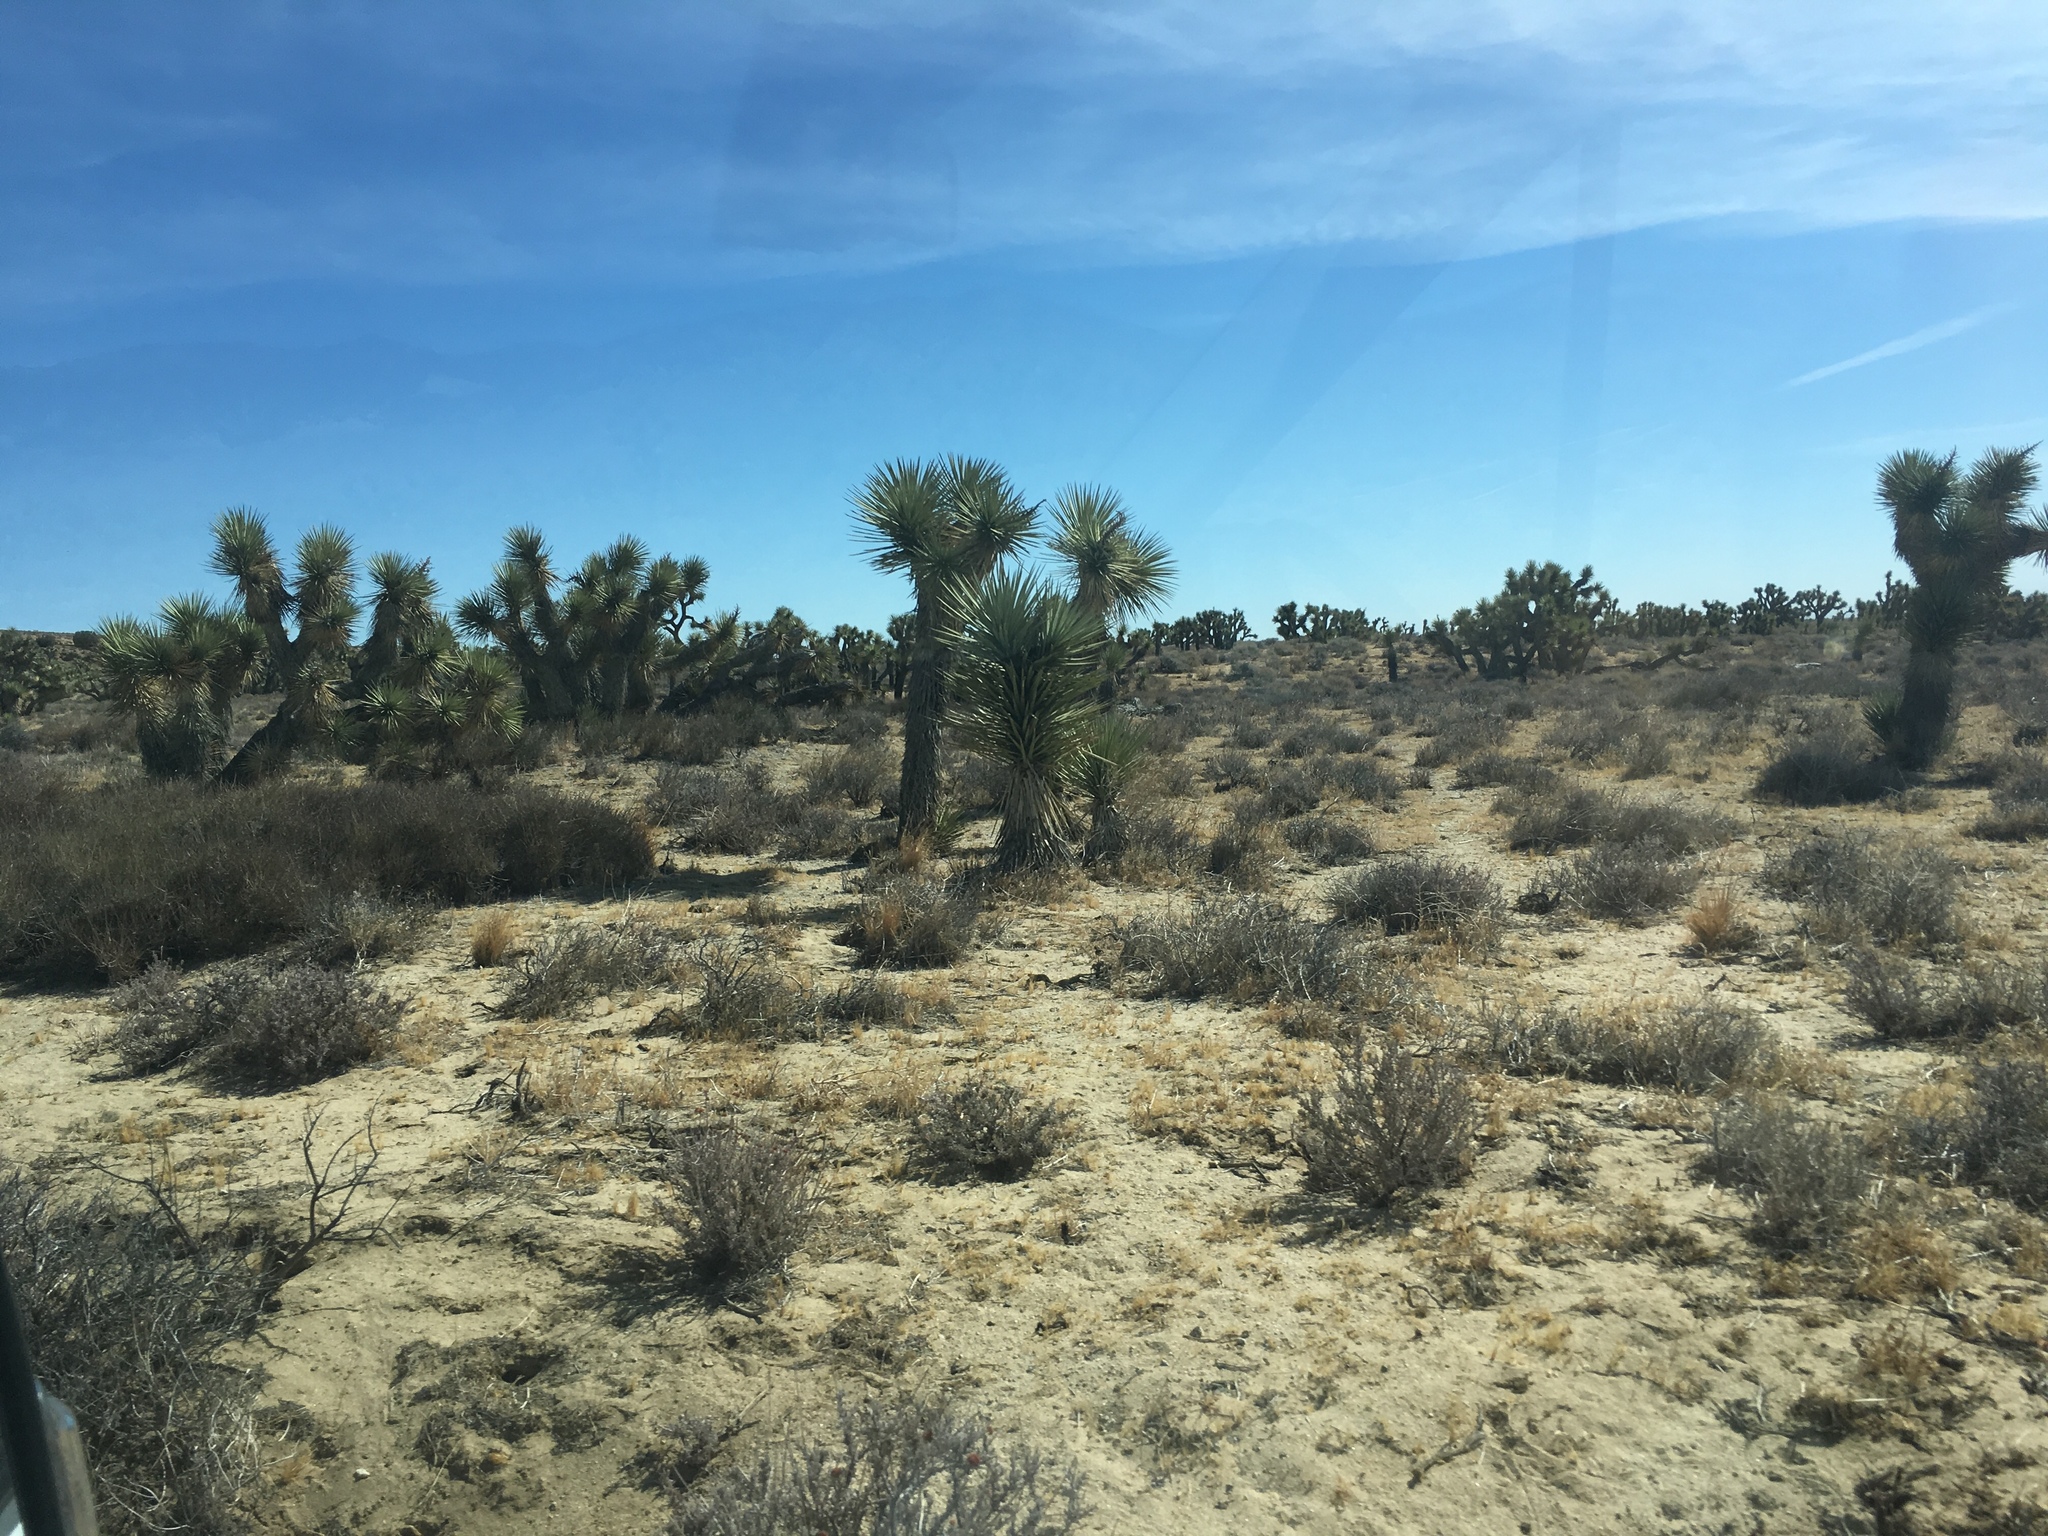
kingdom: Plantae
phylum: Tracheophyta
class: Liliopsida
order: Asparagales
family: Asparagaceae
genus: Yucca
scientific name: Yucca brevifolia
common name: Joshua tree
